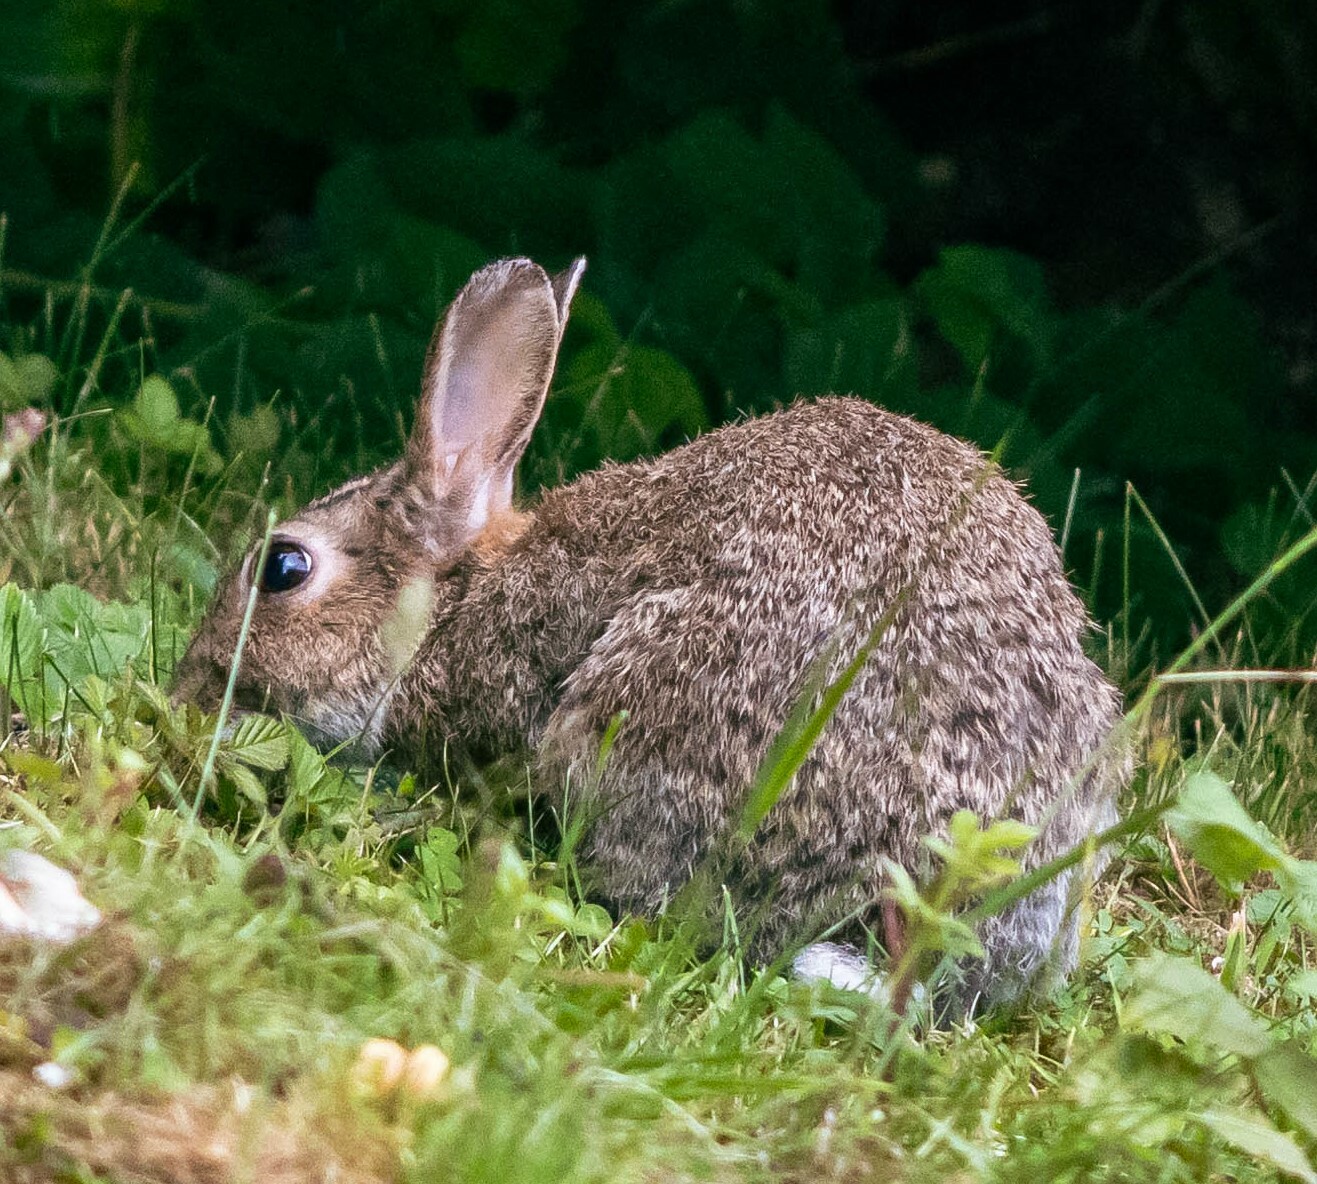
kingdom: Animalia
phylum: Chordata
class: Mammalia
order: Lagomorpha
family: Leporidae
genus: Oryctolagus
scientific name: Oryctolagus cuniculus
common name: European rabbit
